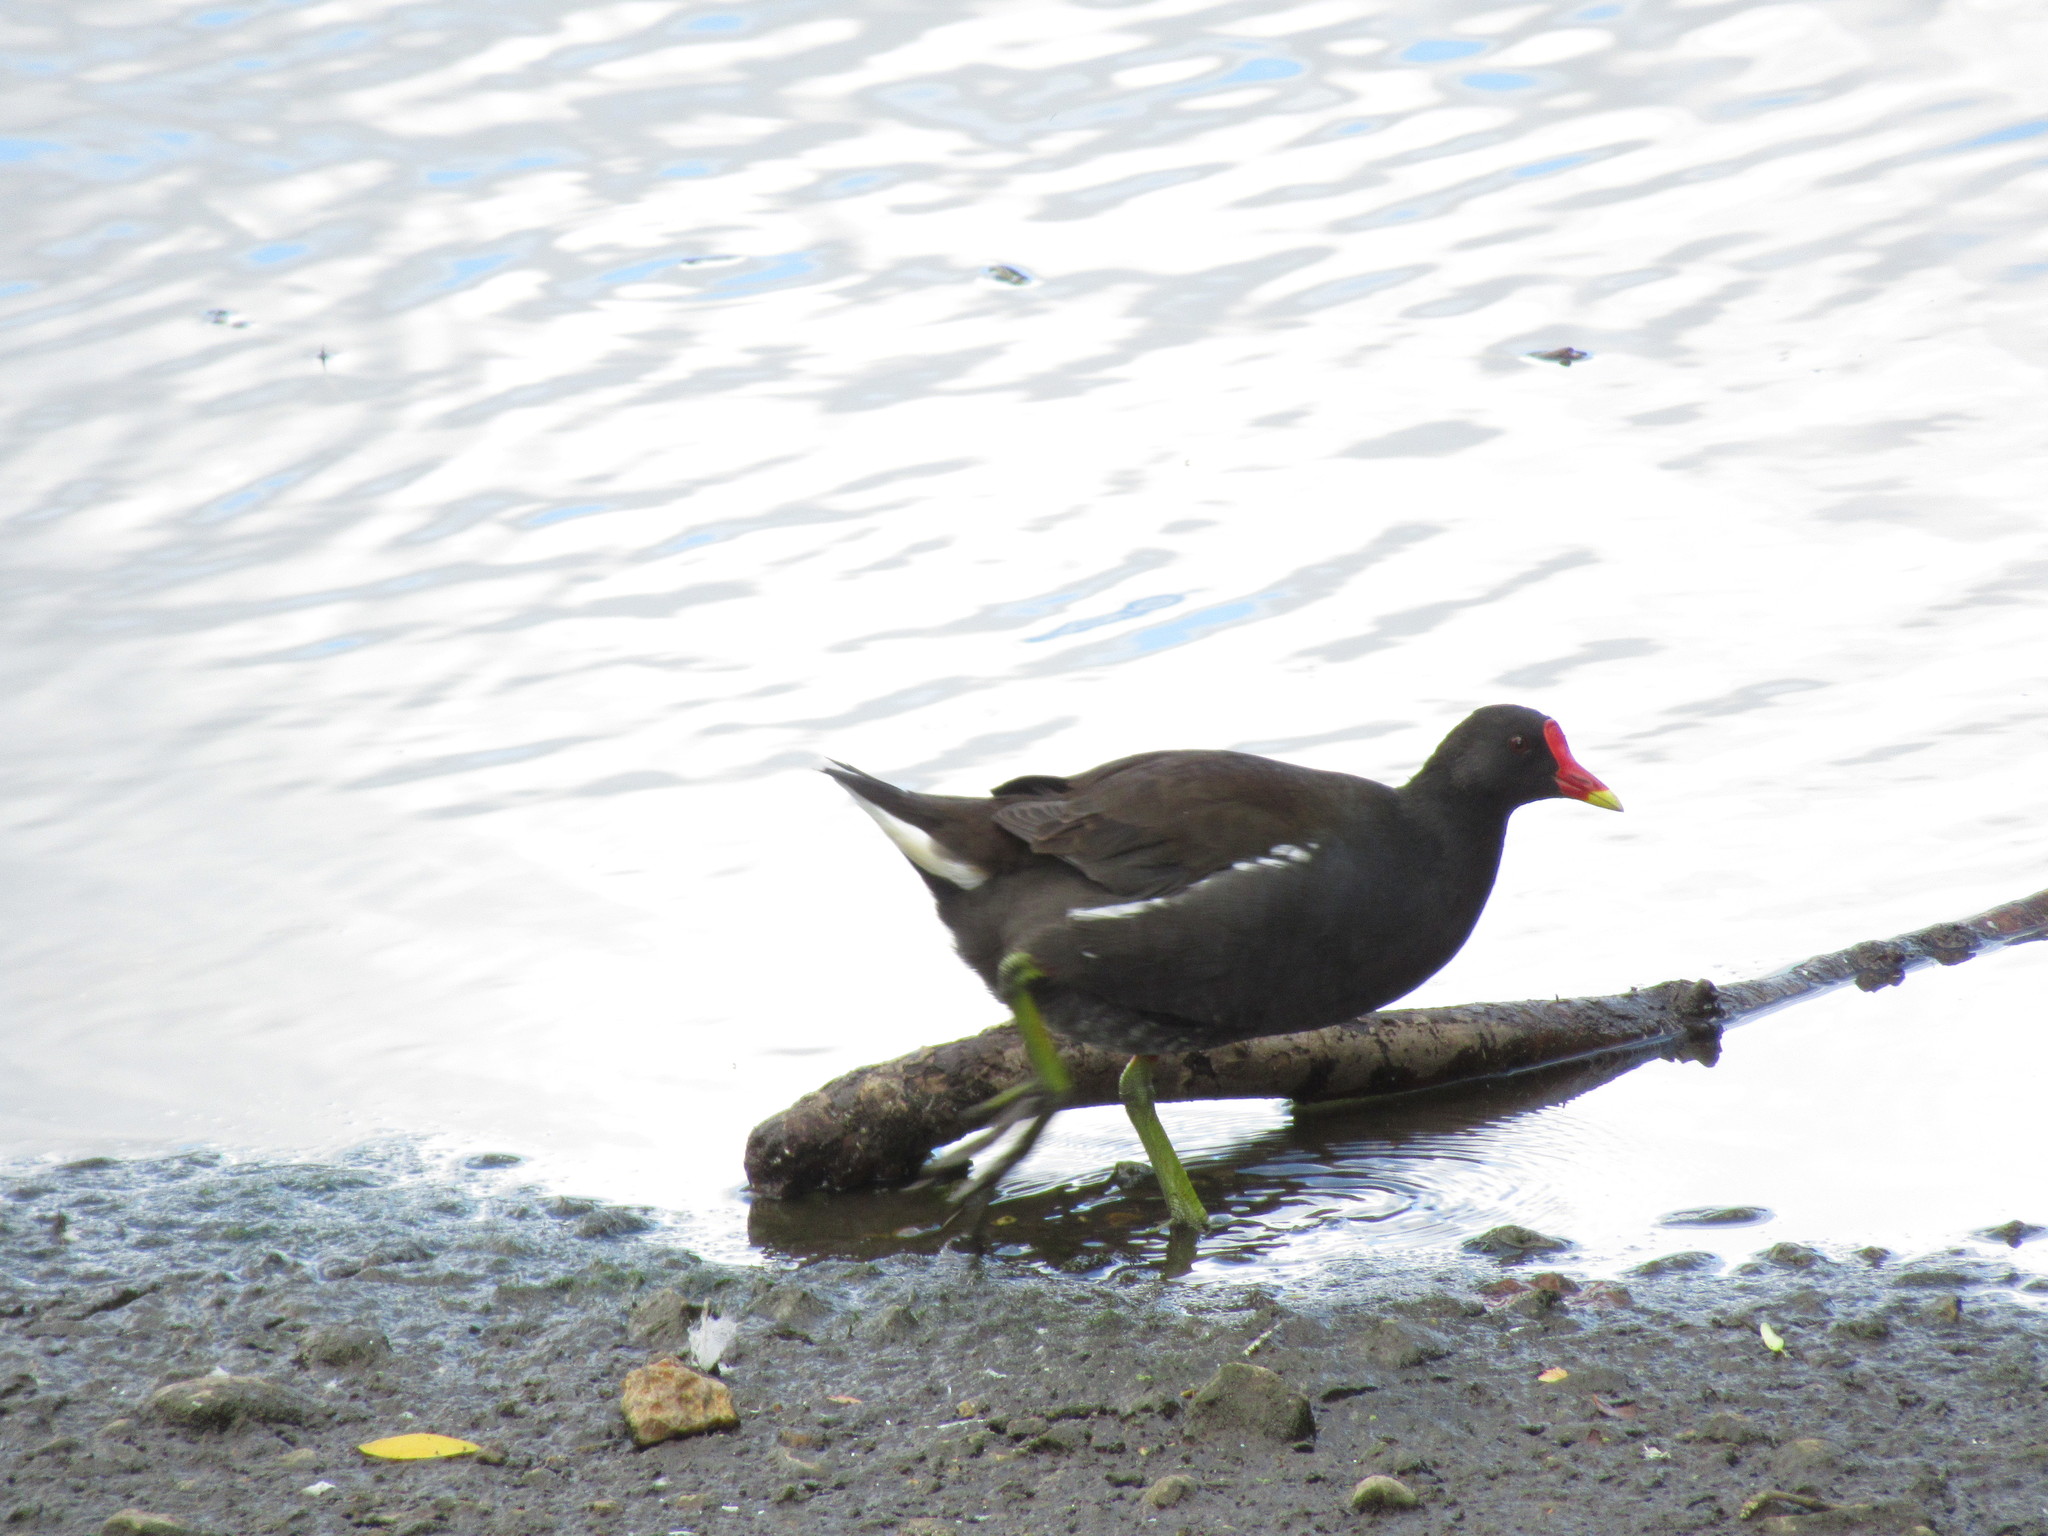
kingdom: Animalia
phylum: Chordata
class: Aves
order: Gruiformes
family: Rallidae
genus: Gallinula
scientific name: Gallinula chloropus
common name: Common moorhen
